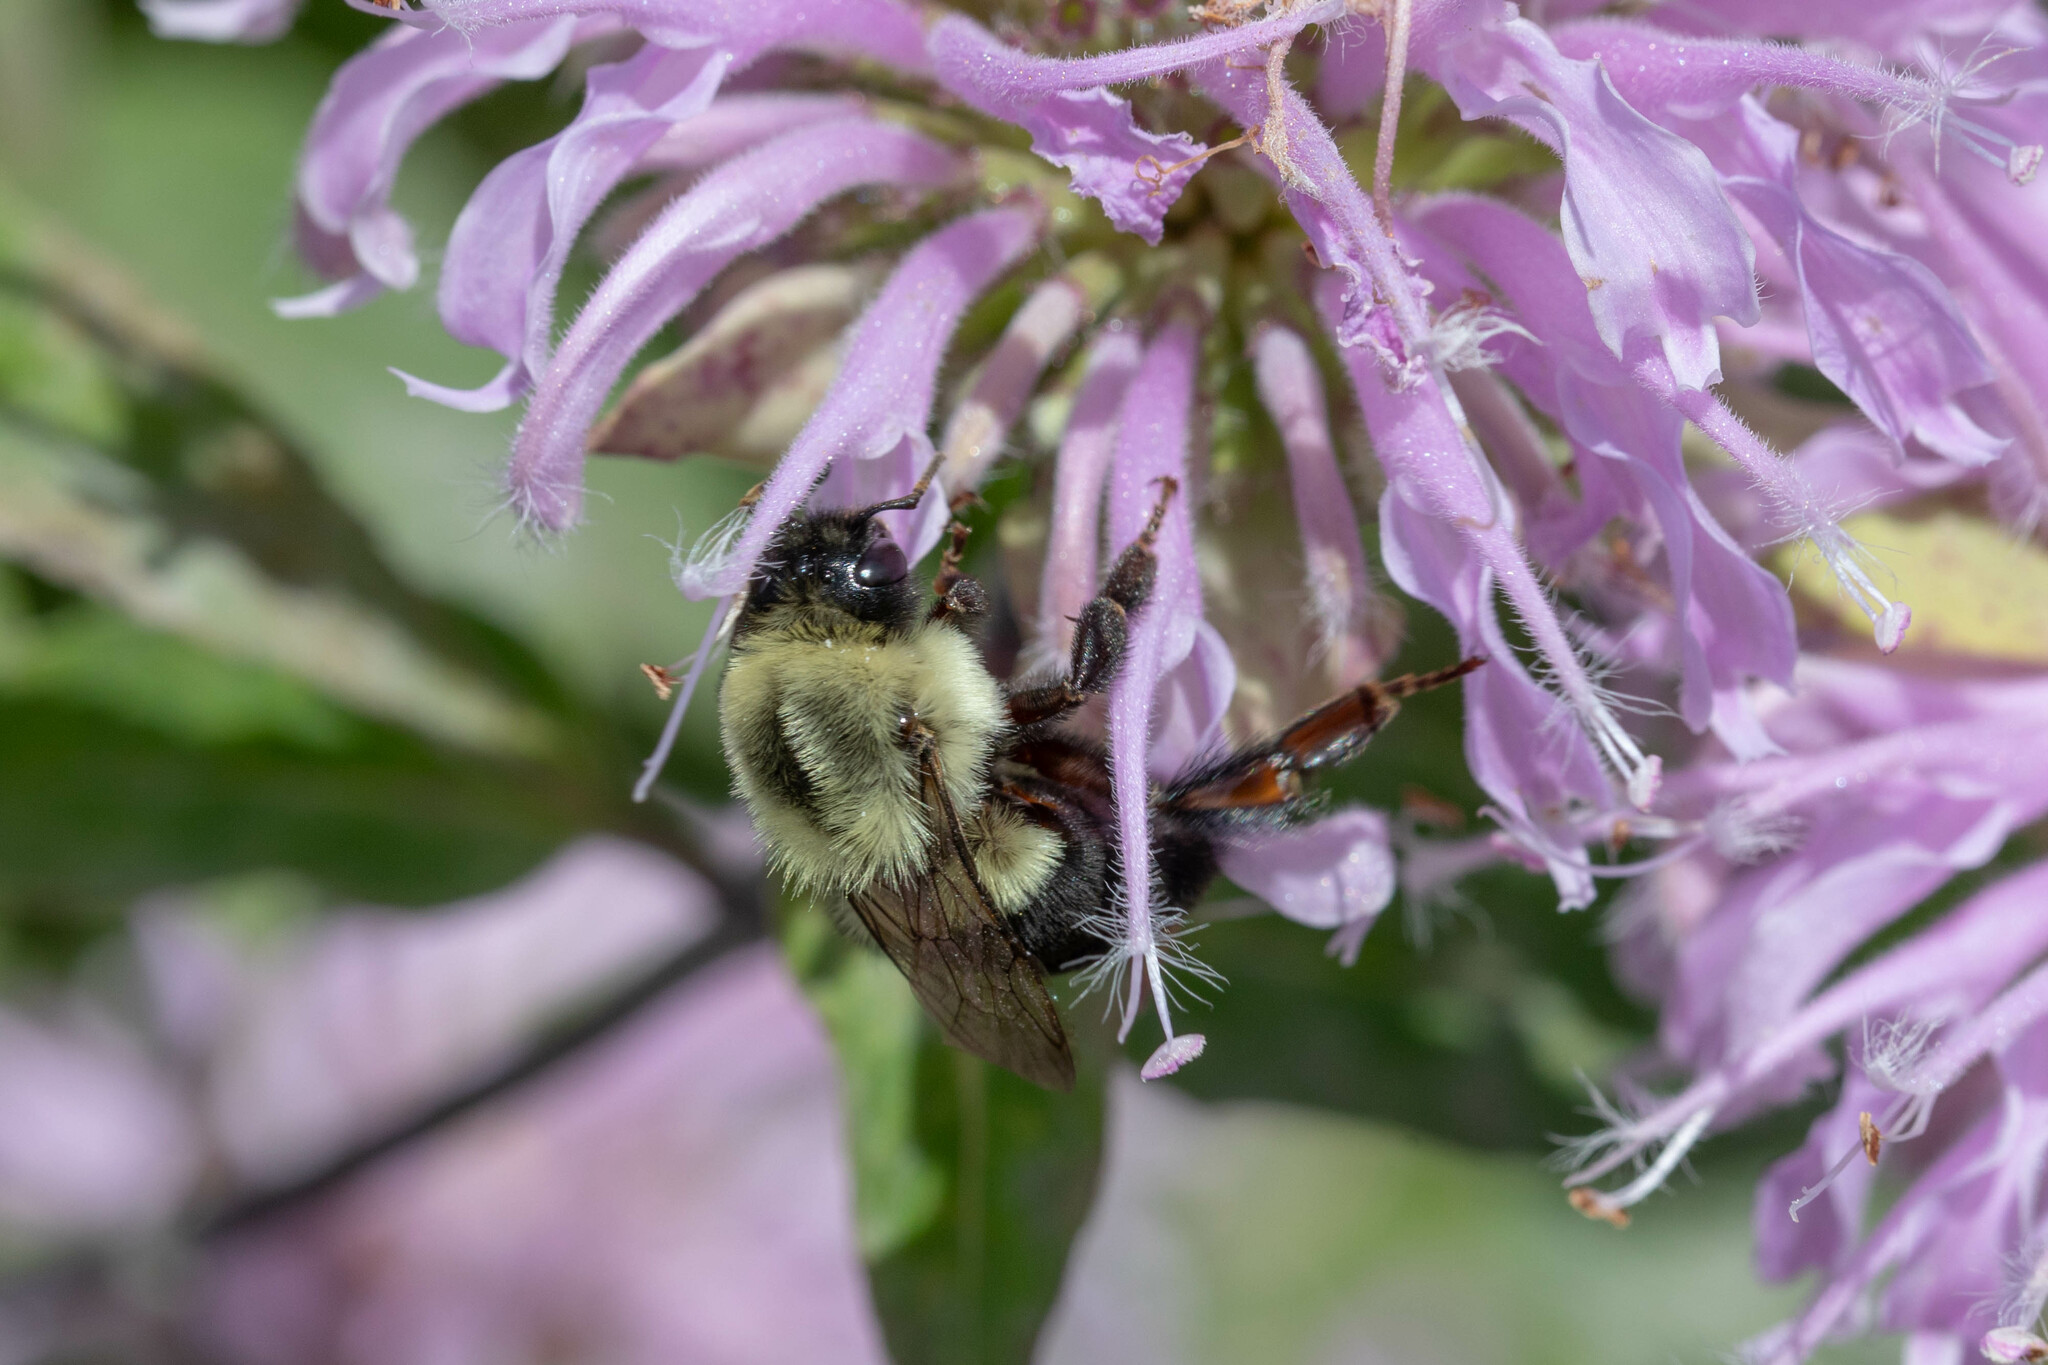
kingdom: Animalia
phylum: Arthropoda
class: Insecta
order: Hymenoptera
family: Apidae
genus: Bombus
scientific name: Bombus impatiens
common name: Common eastern bumble bee
